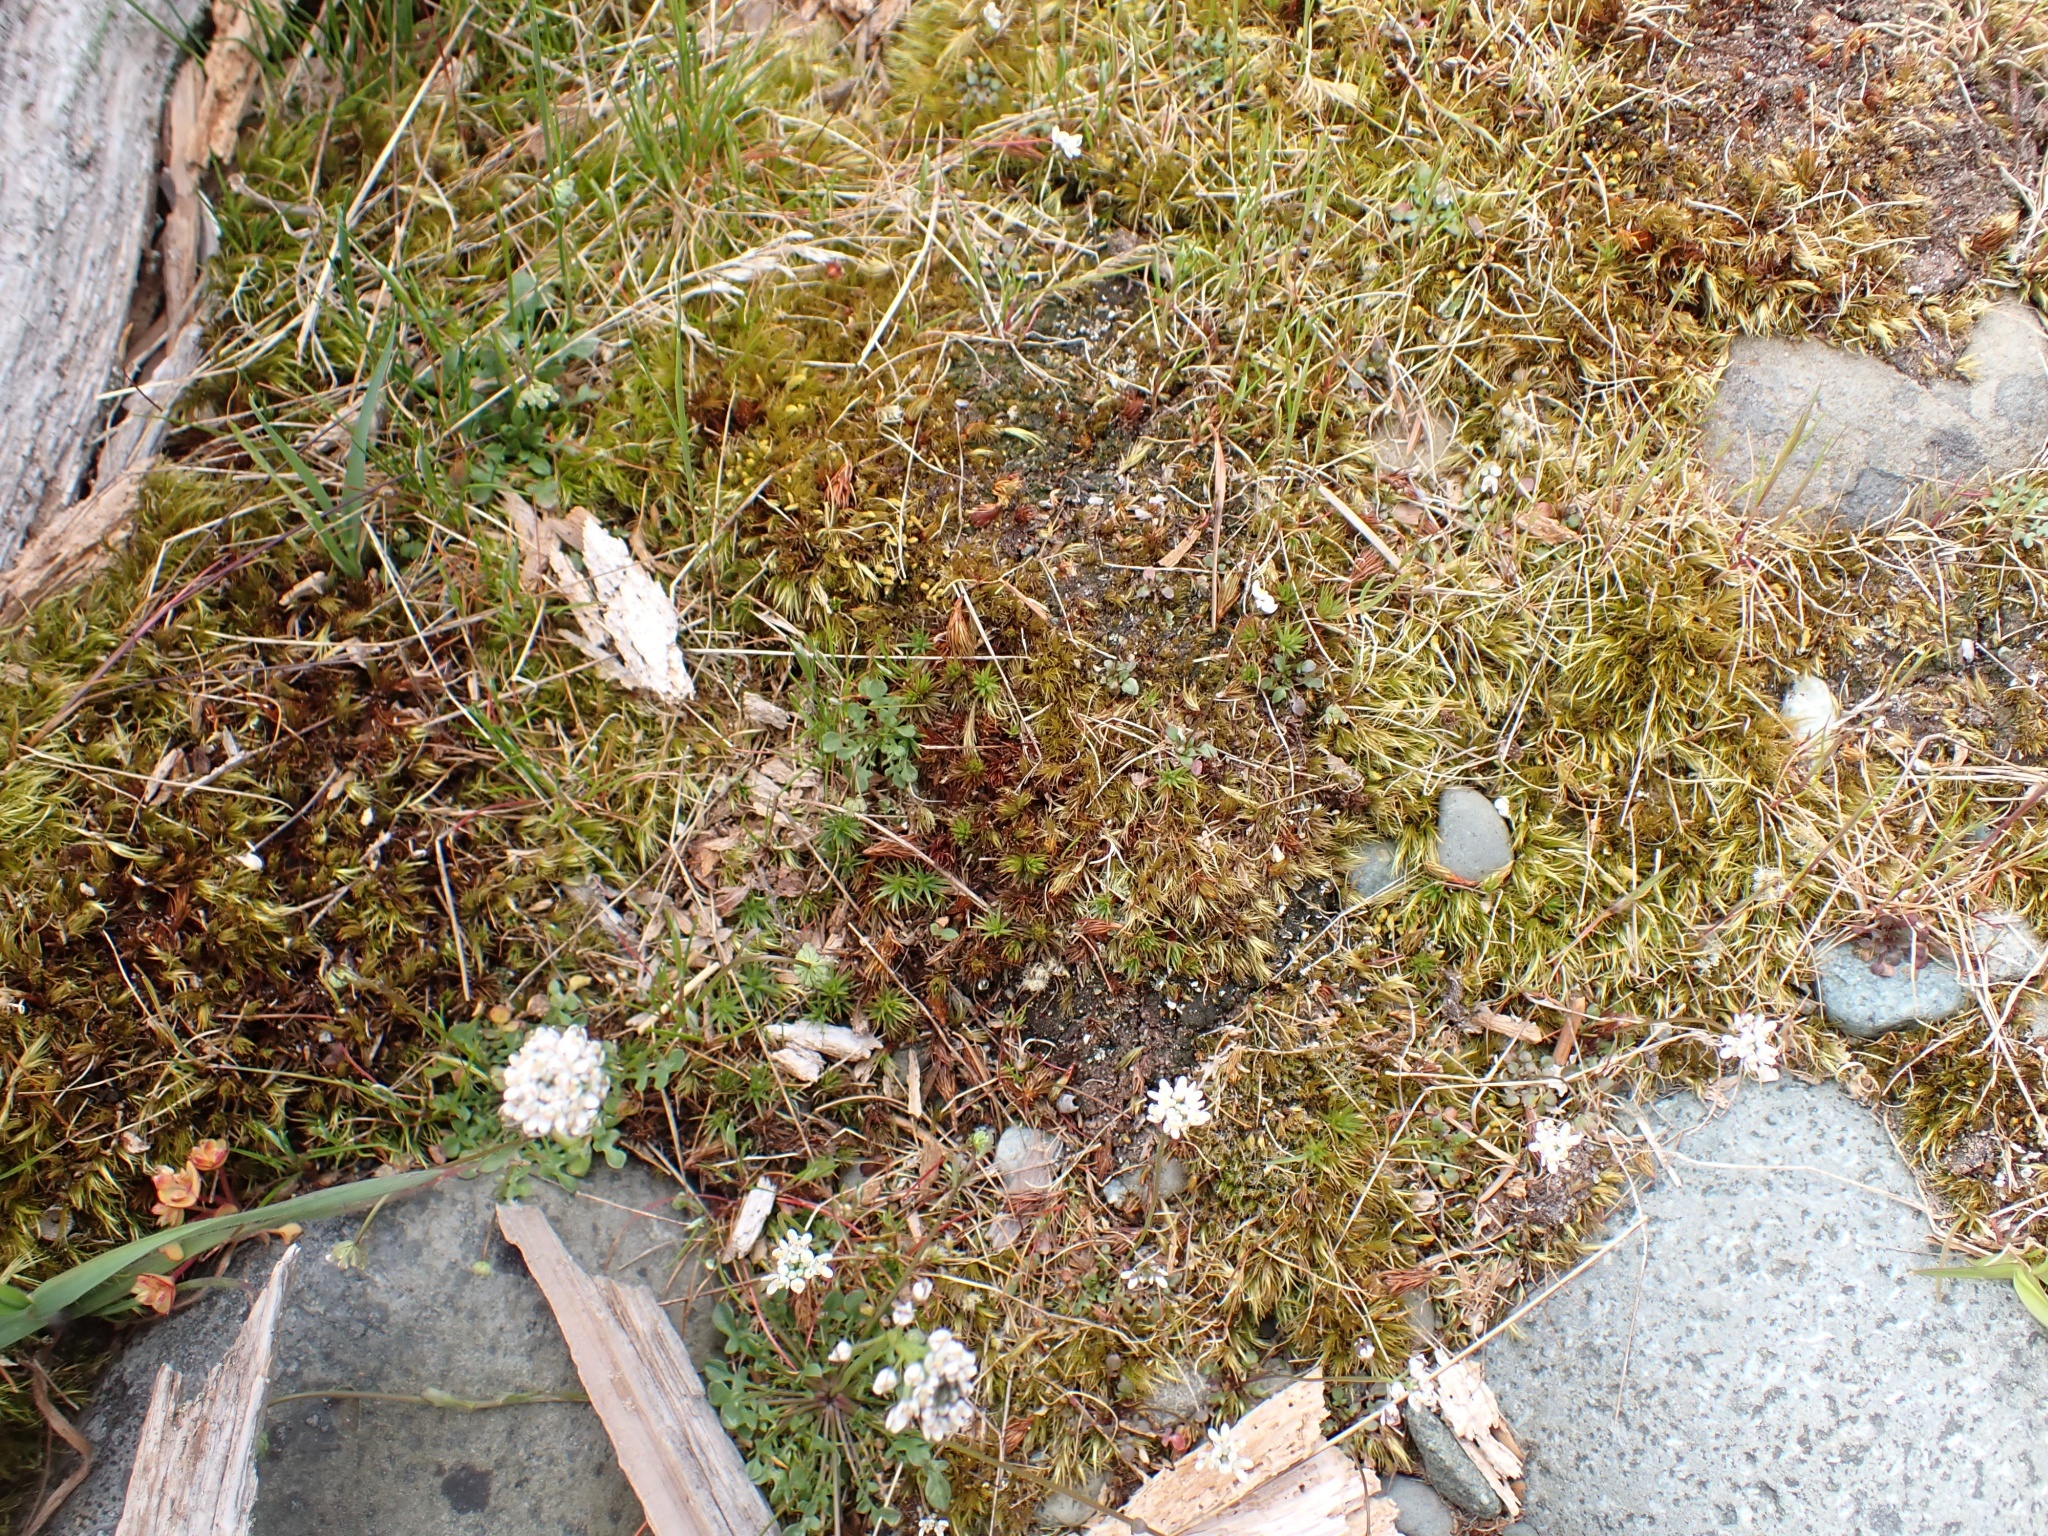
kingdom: Plantae
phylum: Bryophyta
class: Polytrichopsida
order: Polytrichales
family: Polytrichaceae
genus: Polytrichum
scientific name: Polytrichum juniperinum
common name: Juniper haircap moss
